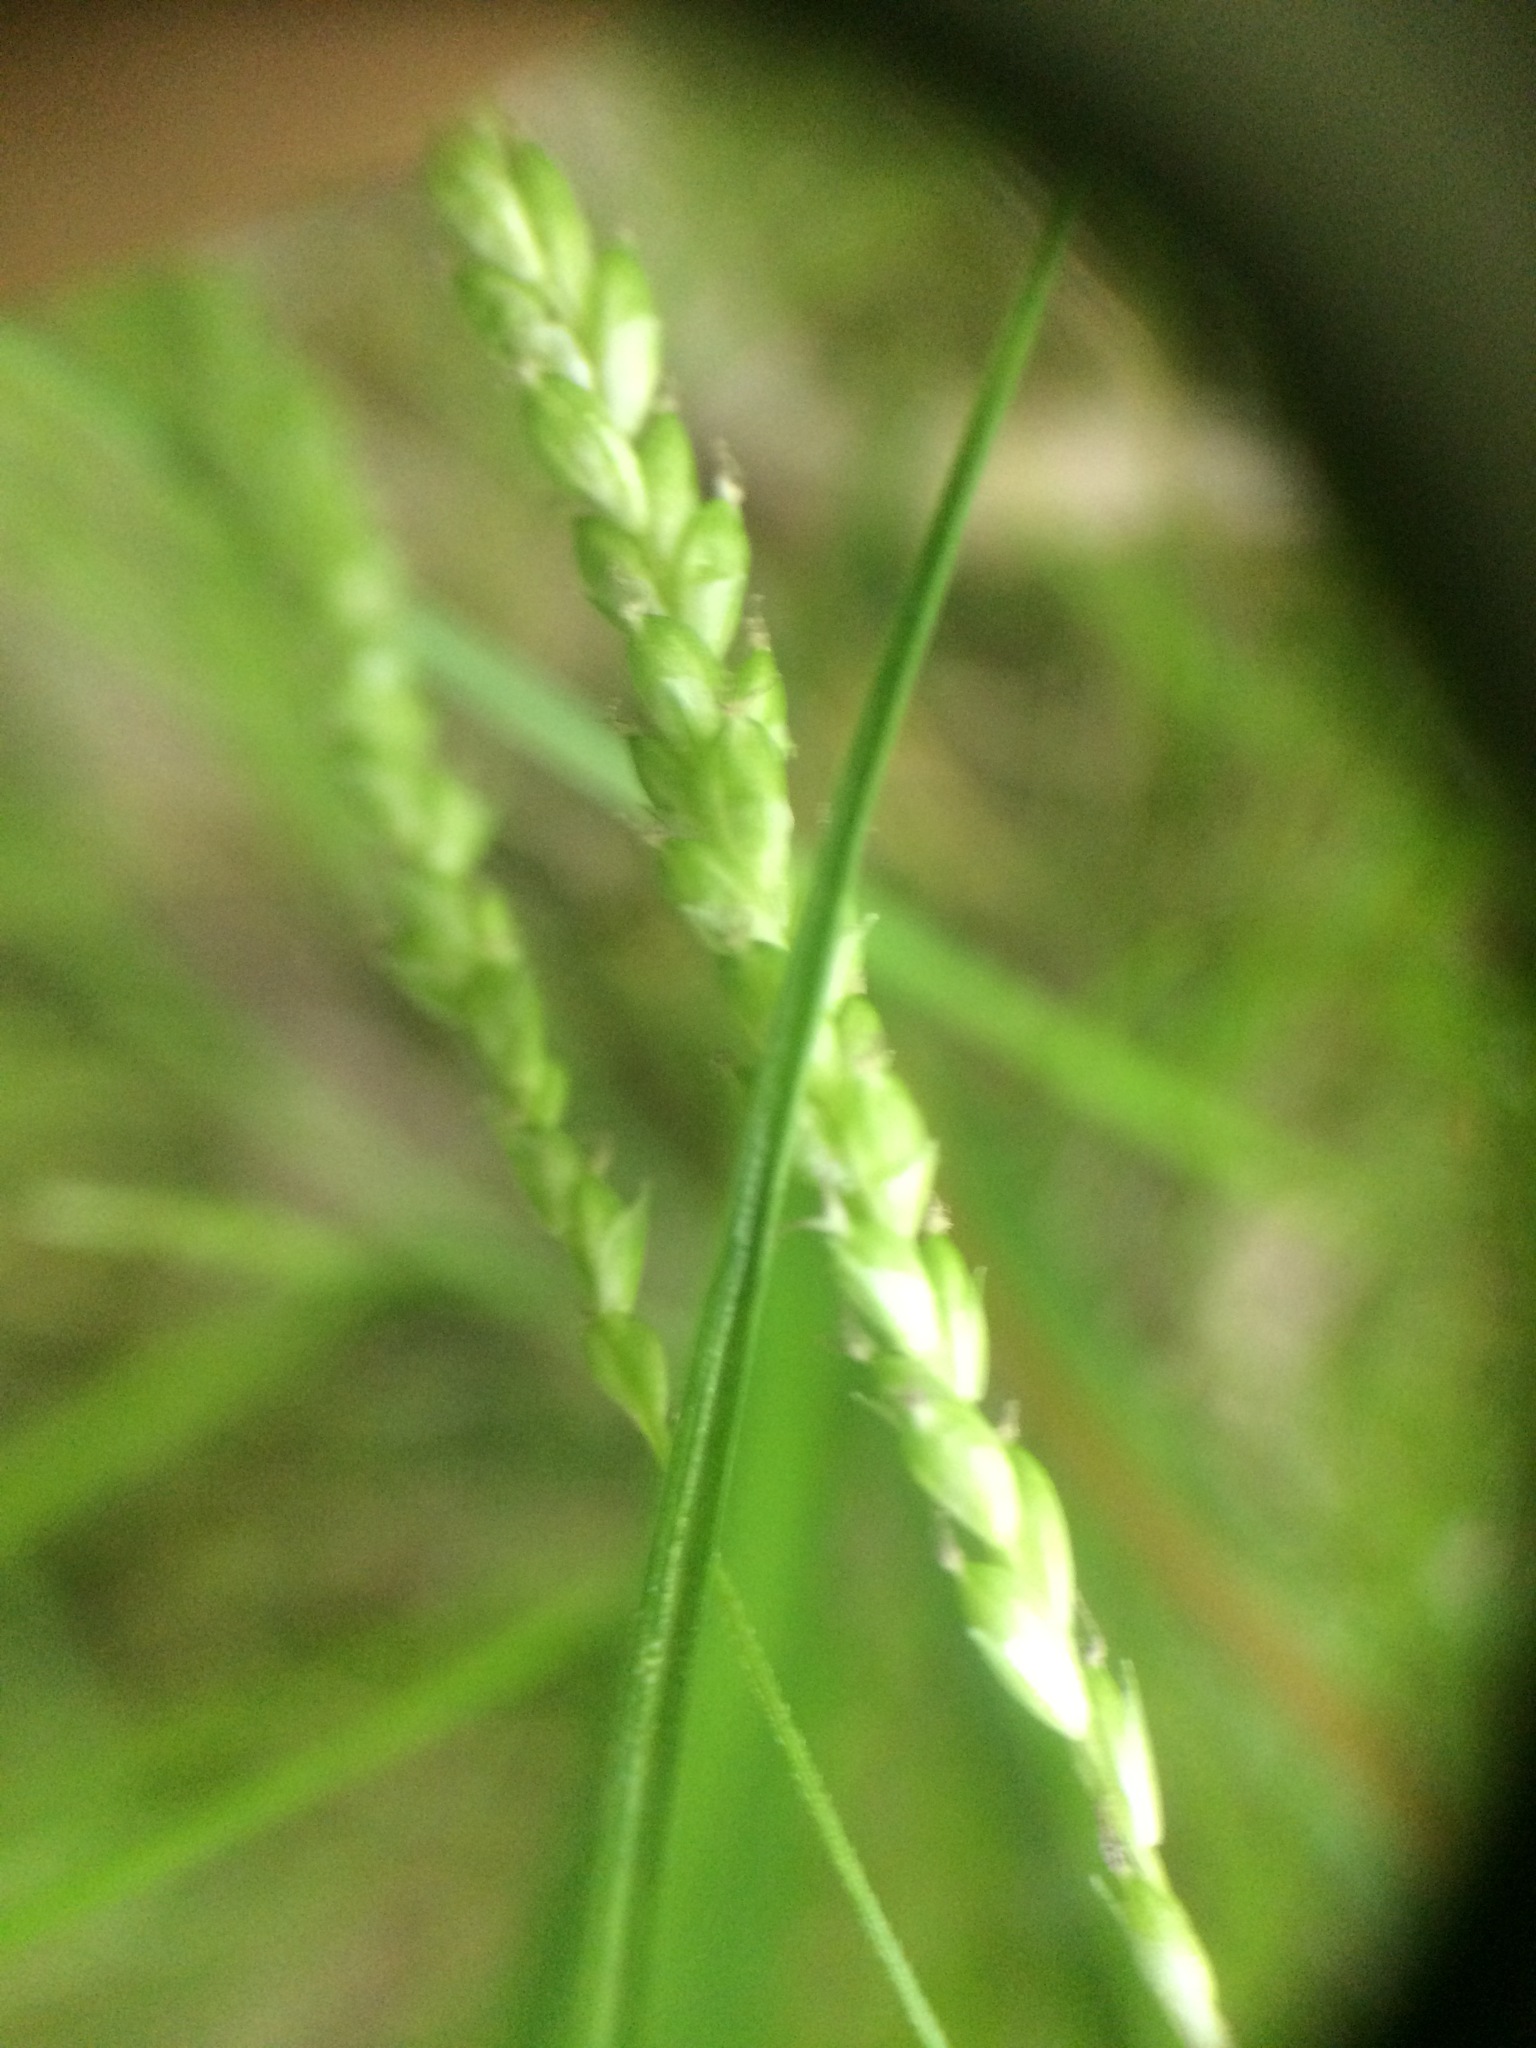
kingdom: Plantae
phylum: Tracheophyta
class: Liliopsida
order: Poales
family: Cyperaceae
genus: Carex
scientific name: Carex gracillima
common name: Graceful sedge
